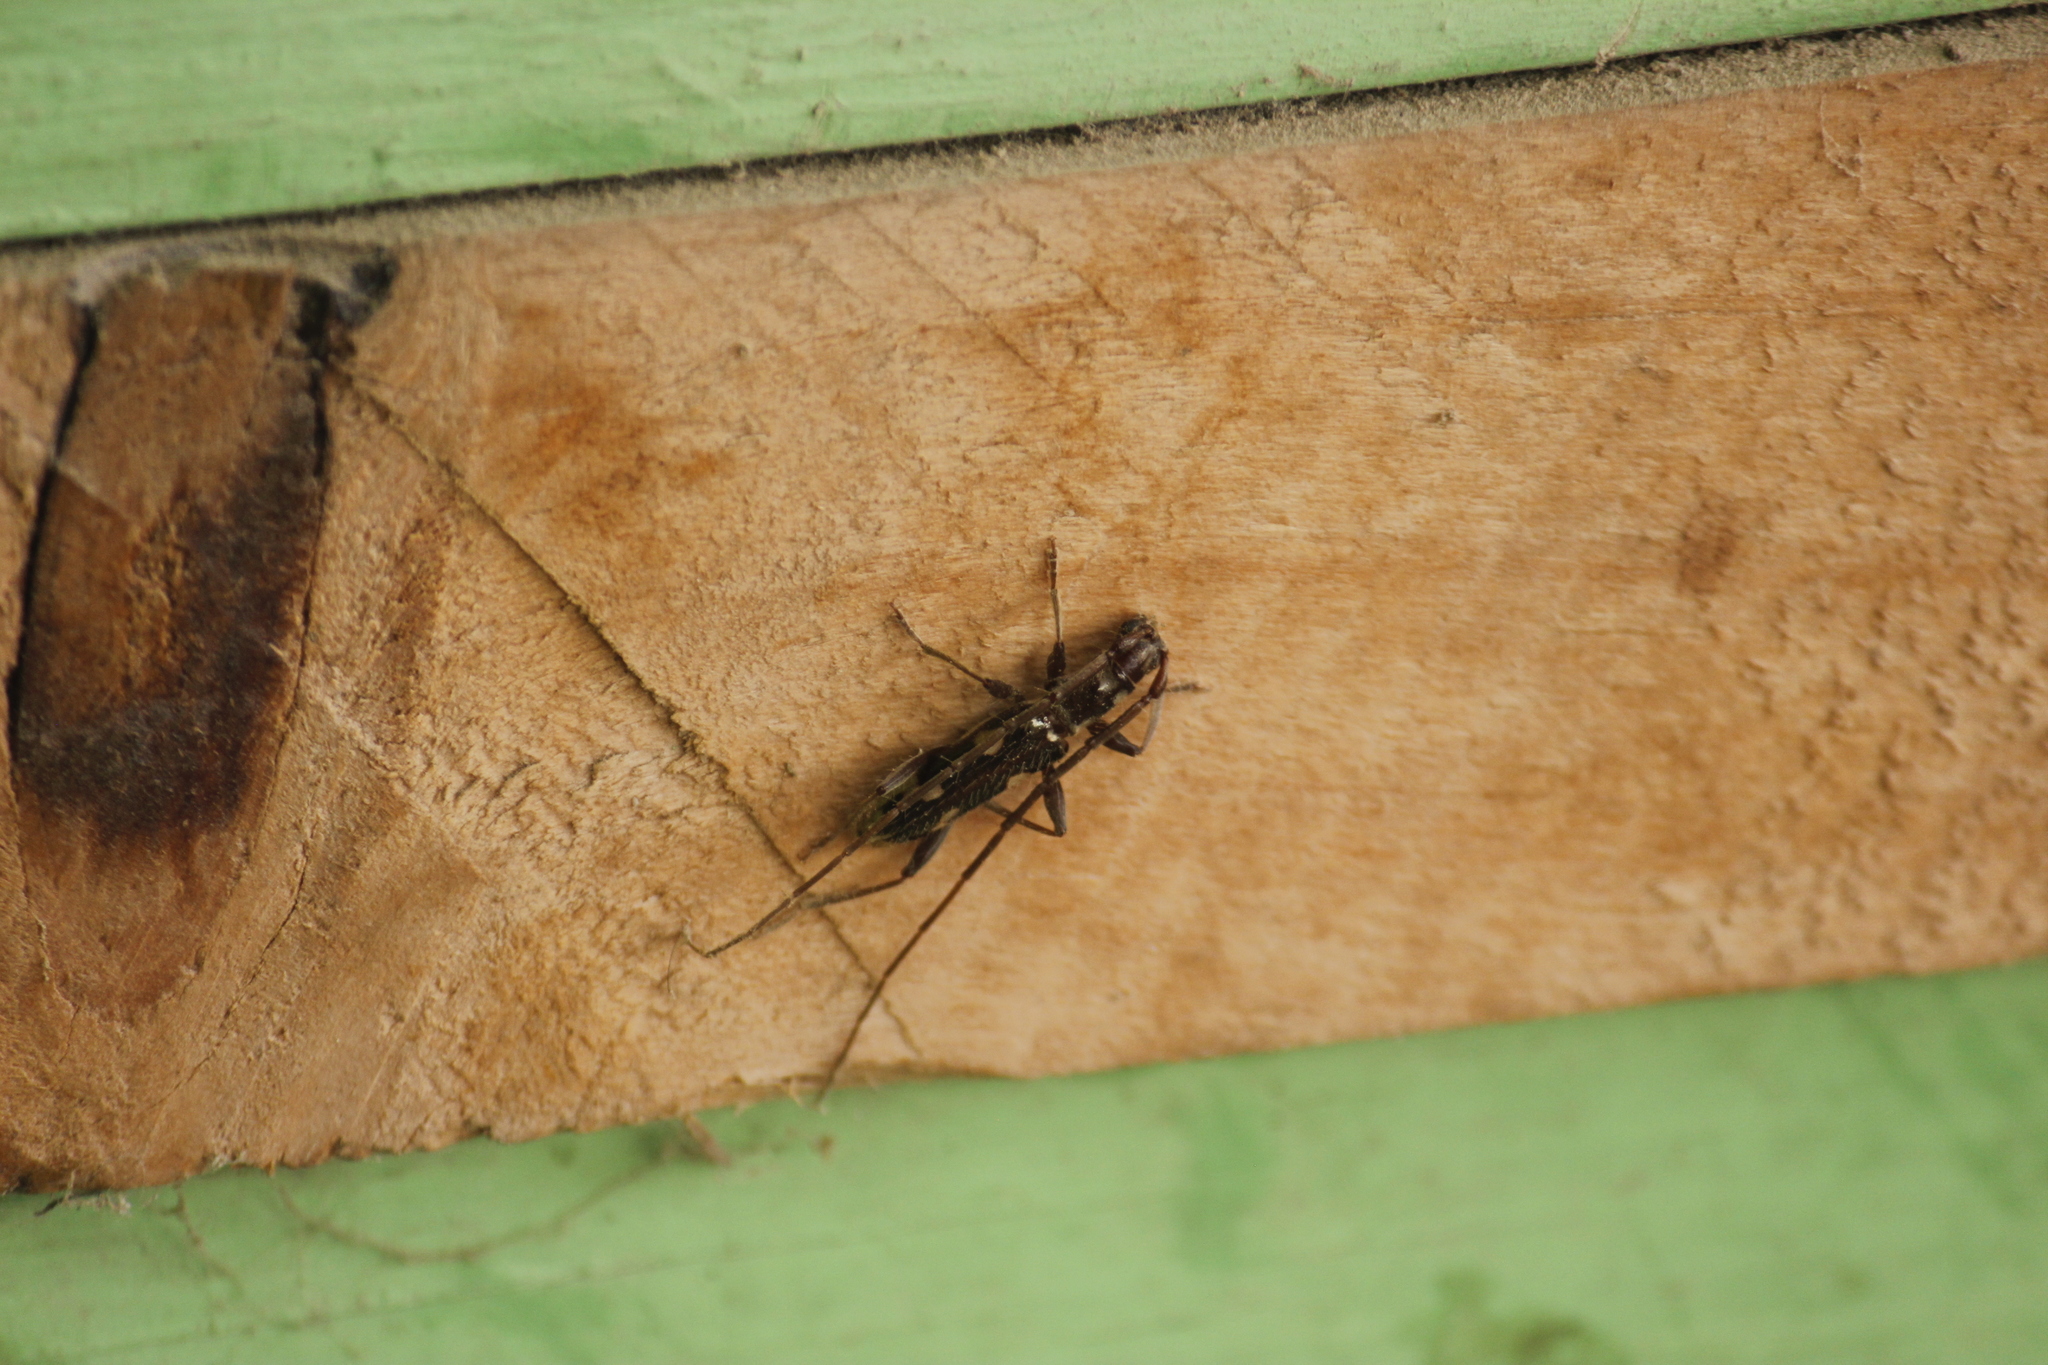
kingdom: Animalia
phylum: Arthropoda
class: Insecta
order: Coleoptera
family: Cerambycidae
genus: Asynapteron
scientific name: Asynapteron inca
